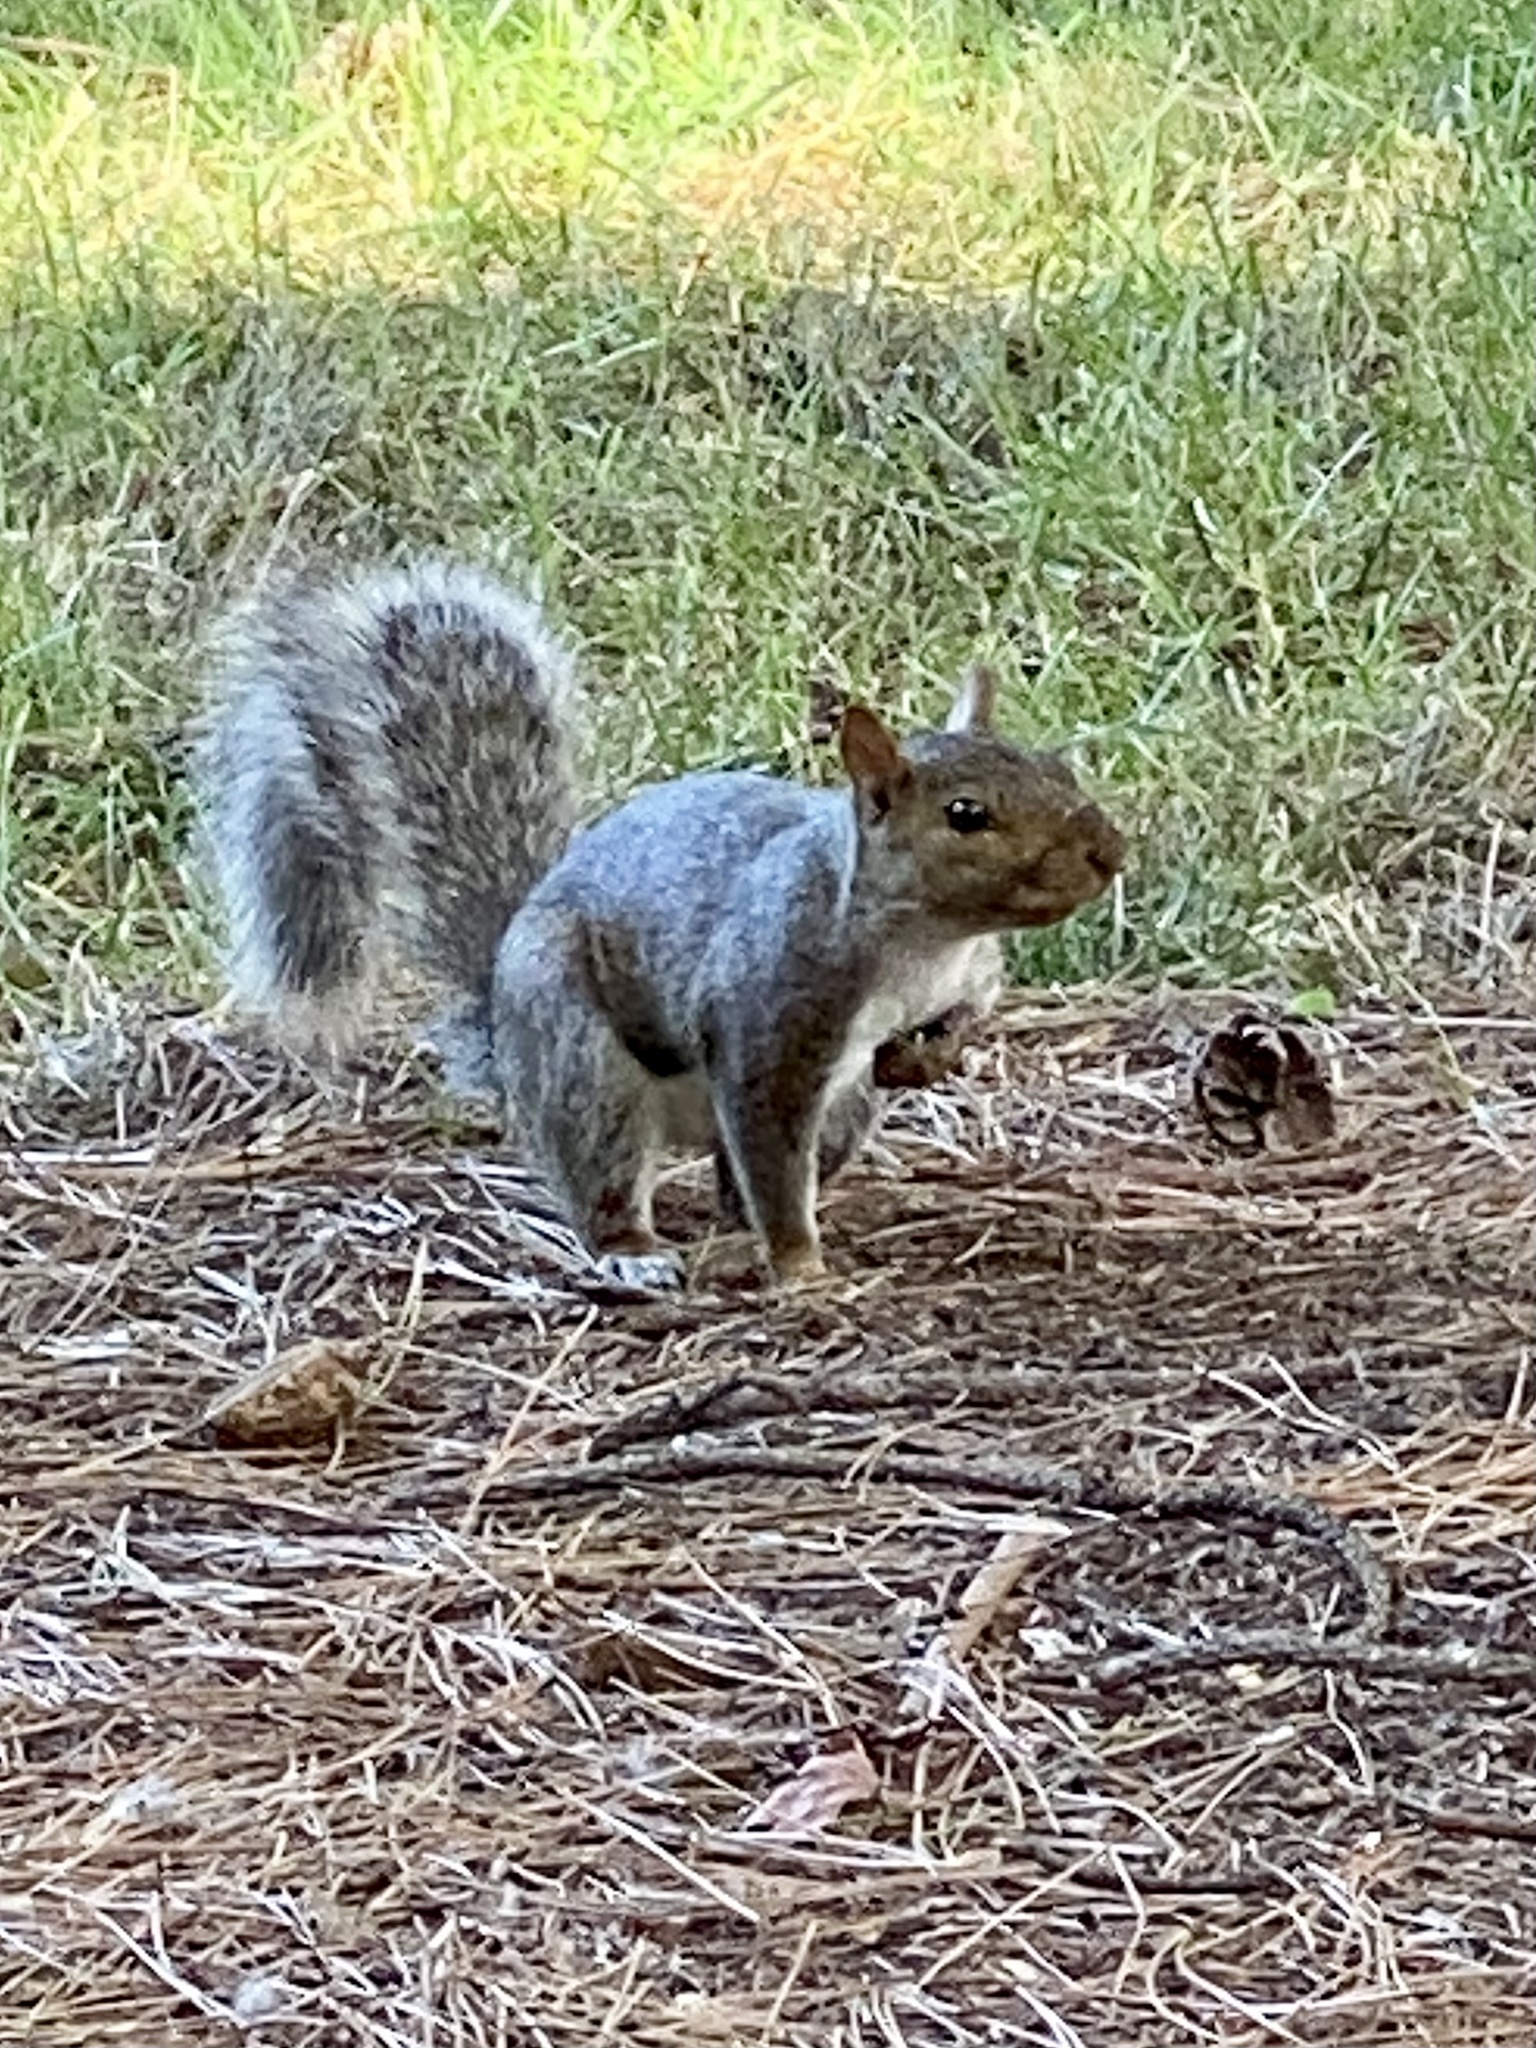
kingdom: Animalia
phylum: Chordata
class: Mammalia
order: Rodentia
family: Sciuridae
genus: Sciurus
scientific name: Sciurus carolinensis
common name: Eastern gray squirrel
